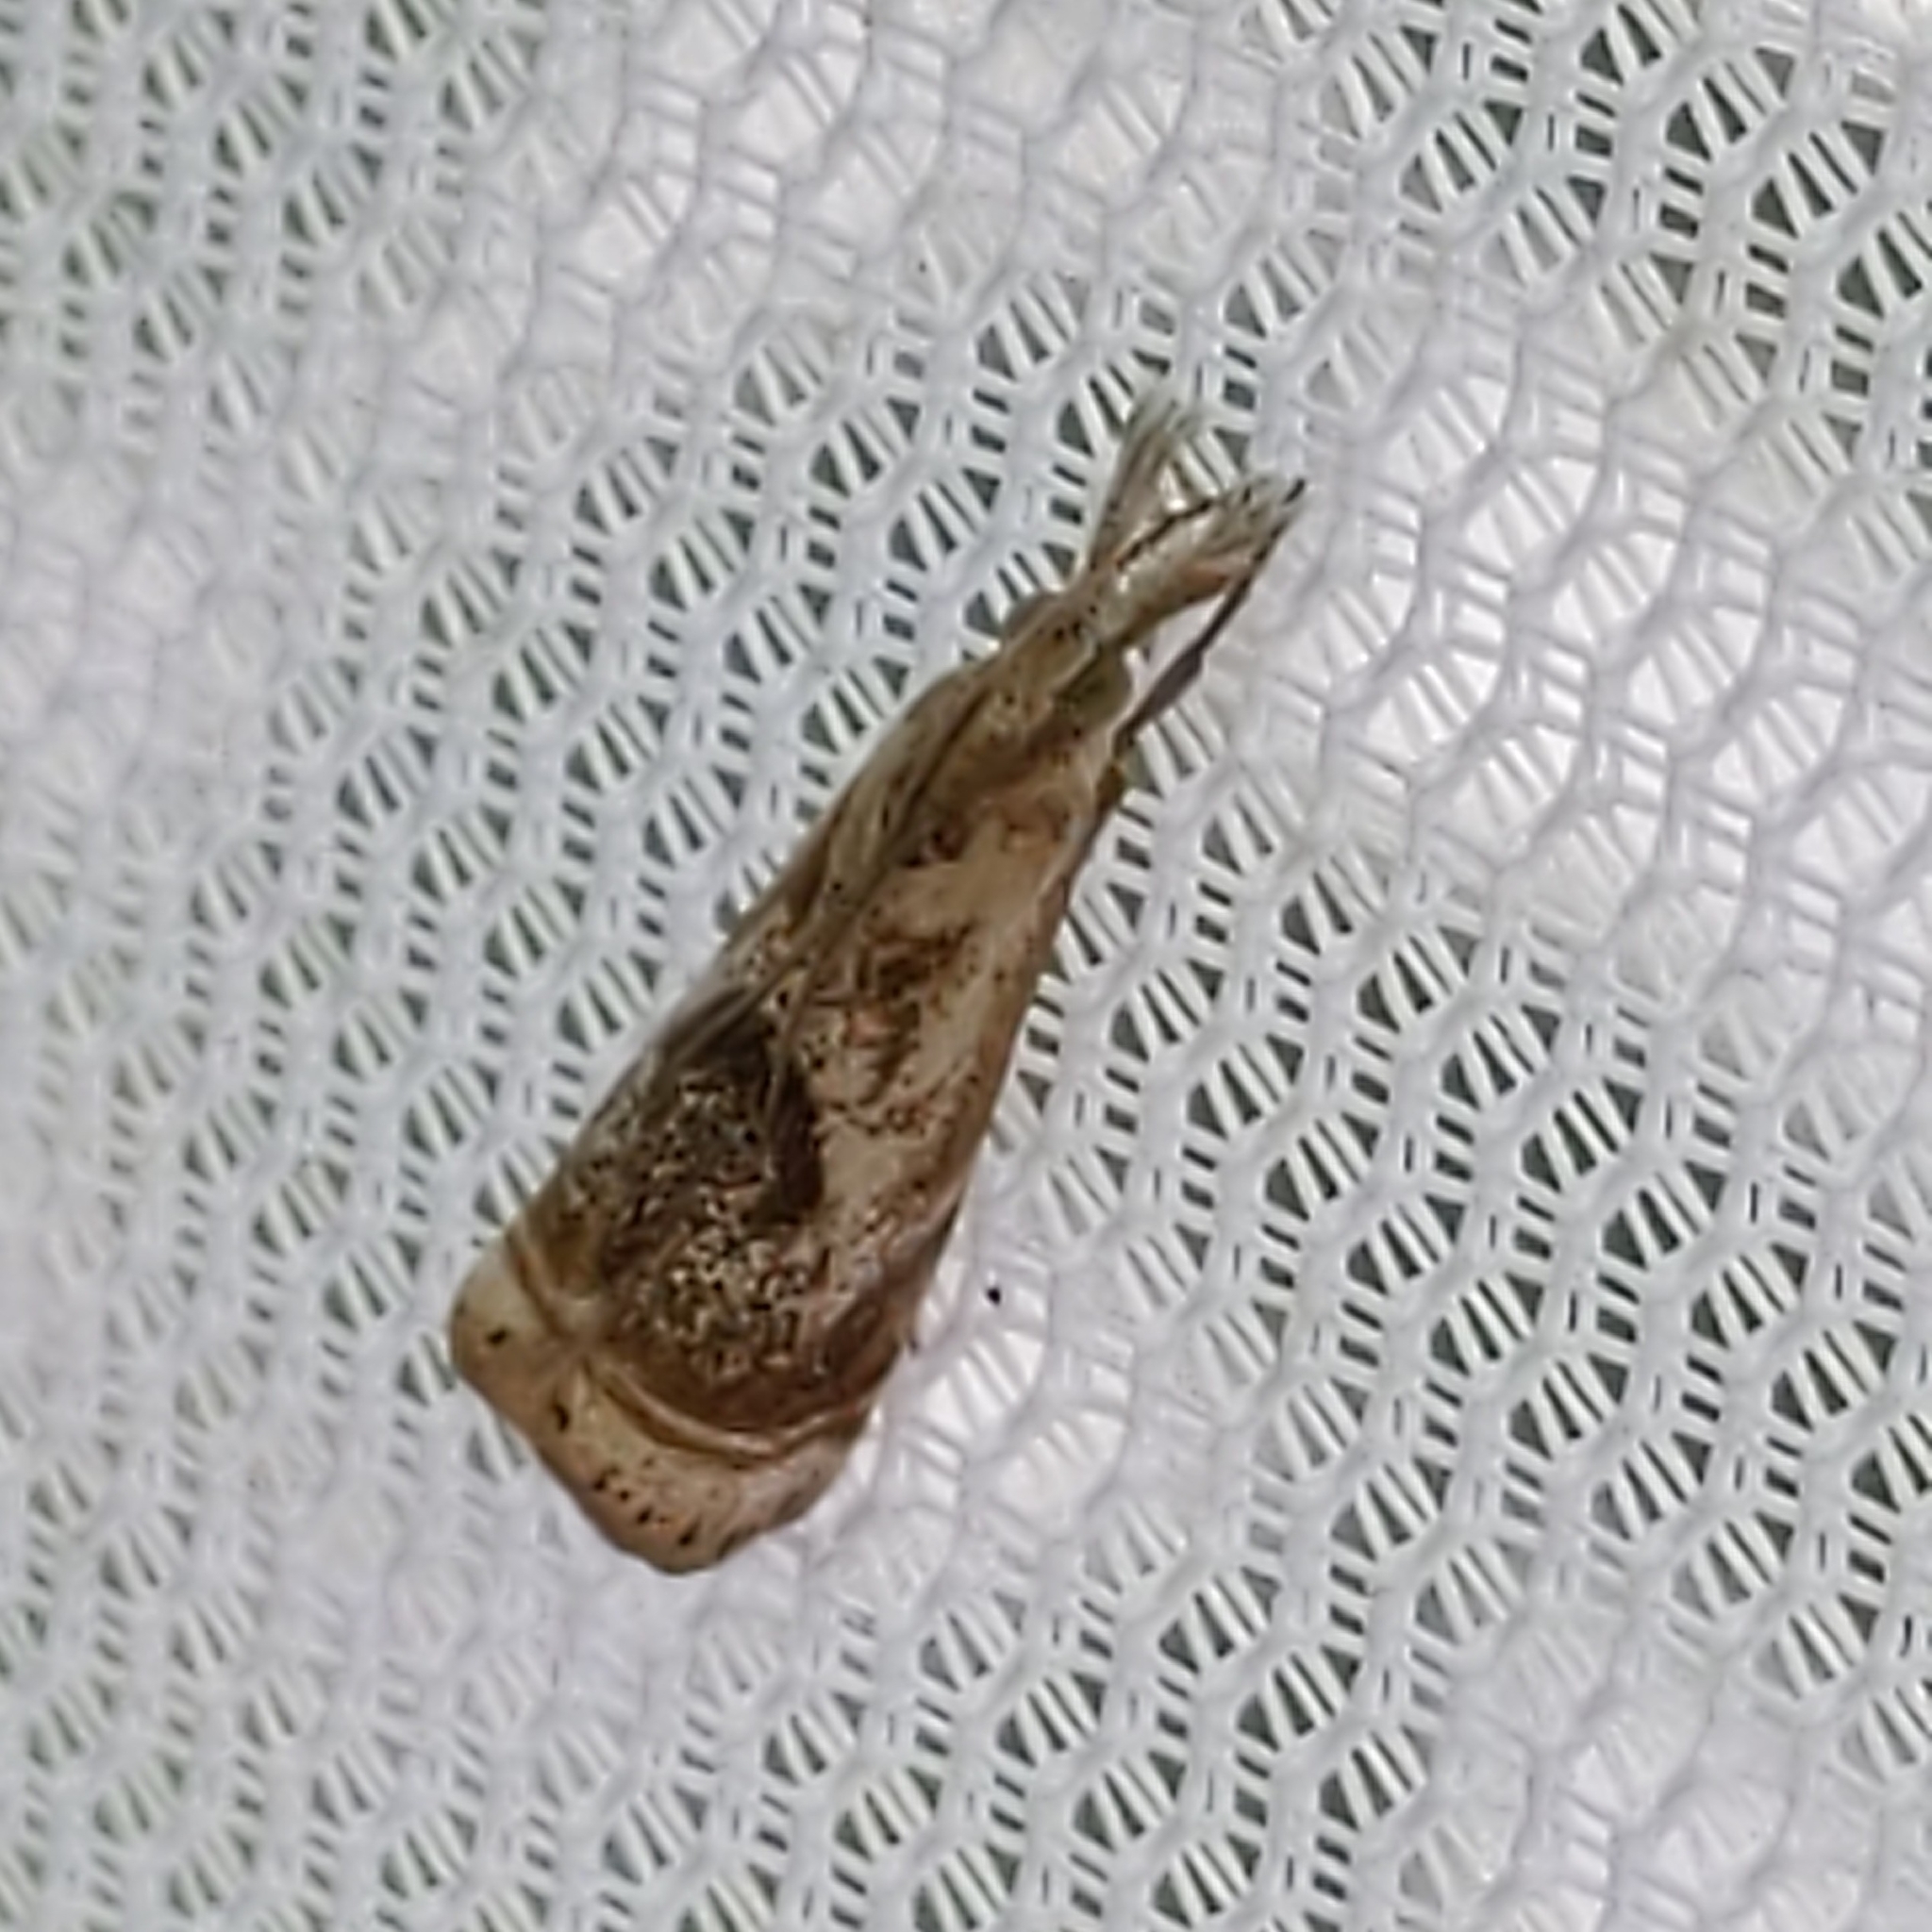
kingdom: Animalia
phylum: Arthropoda
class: Insecta
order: Lepidoptera
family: Crambidae
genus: Microcrambus
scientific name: Microcrambus elegans
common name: Elegant grass-veneer
